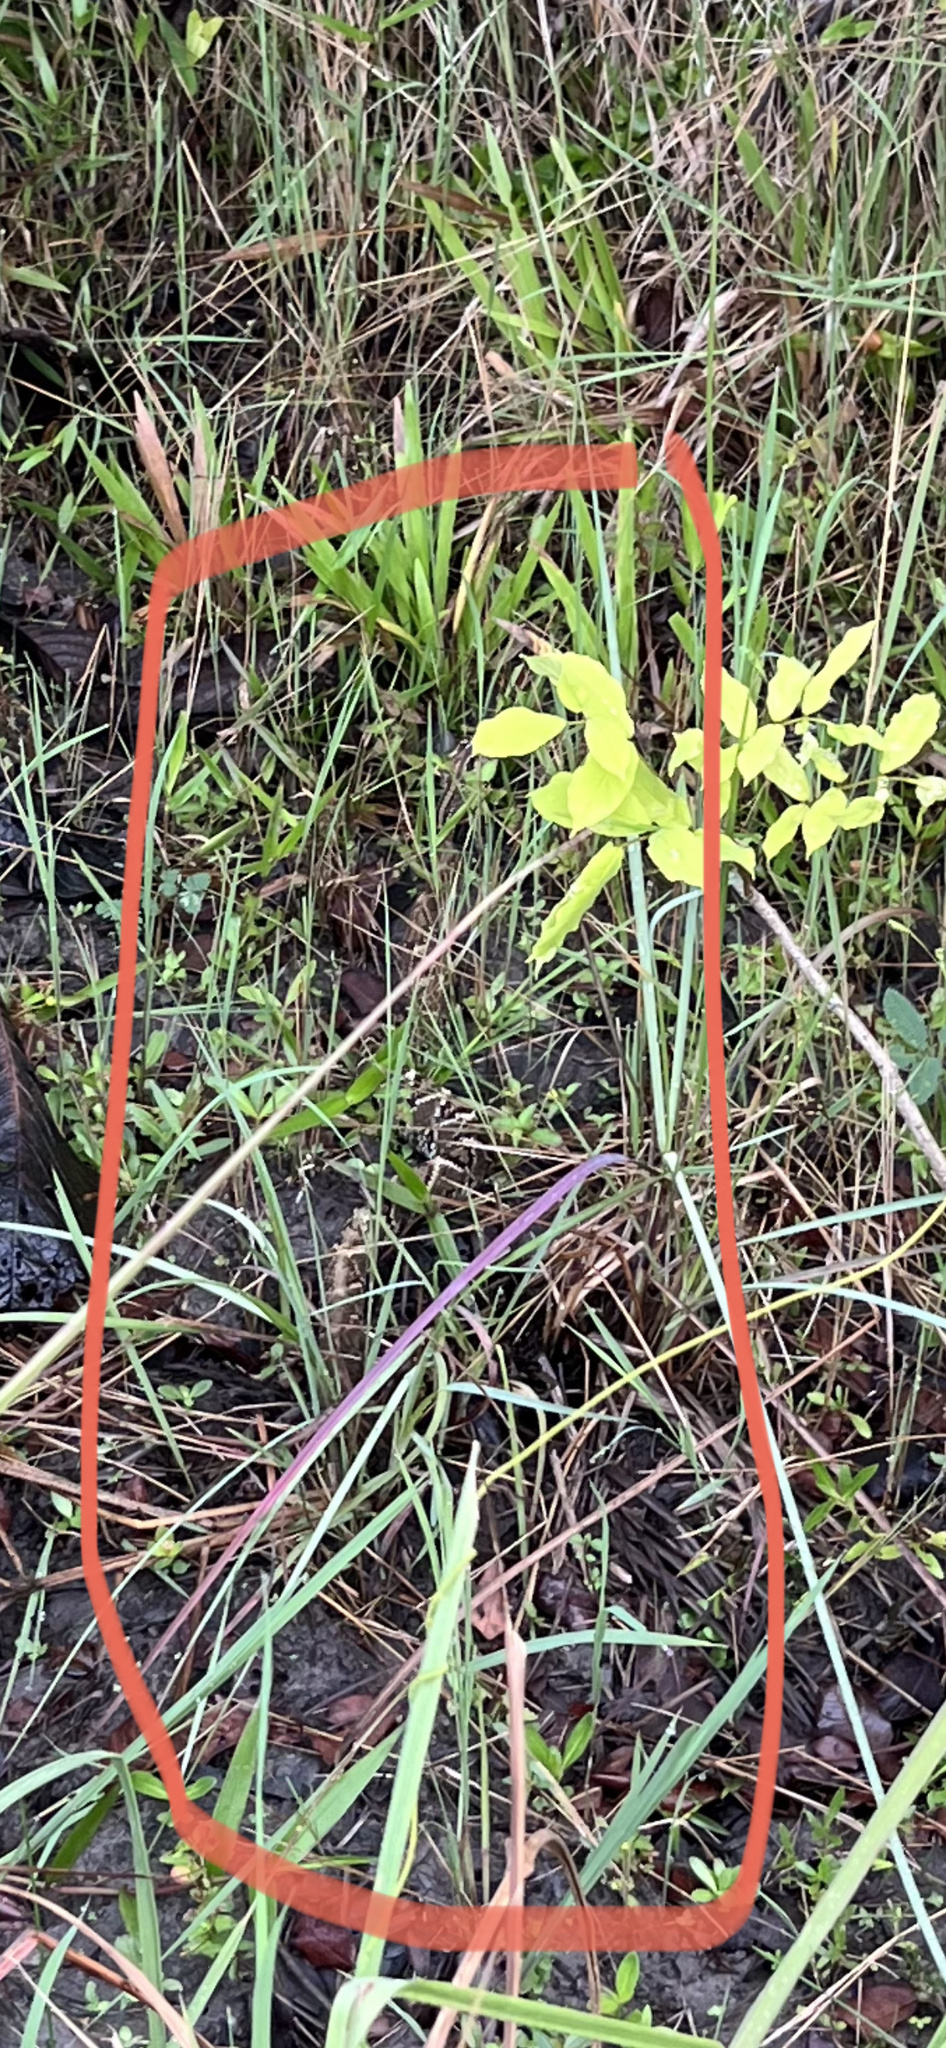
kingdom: Animalia
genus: Crotalus
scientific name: Crotalus durissus
